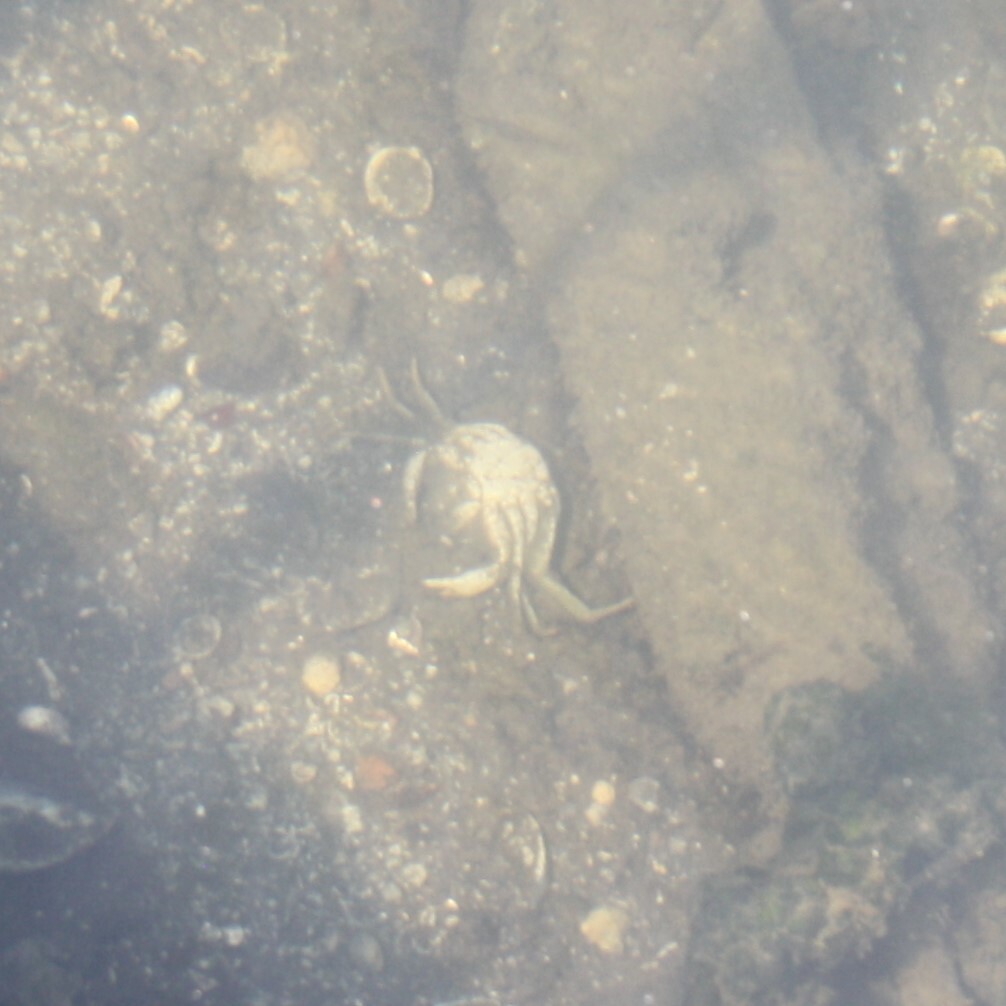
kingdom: Animalia
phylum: Arthropoda
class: Malacostraca
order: Decapoda
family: Carcinidae
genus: Carcinus
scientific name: Carcinus aestuarii
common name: Mediterranean green crab
